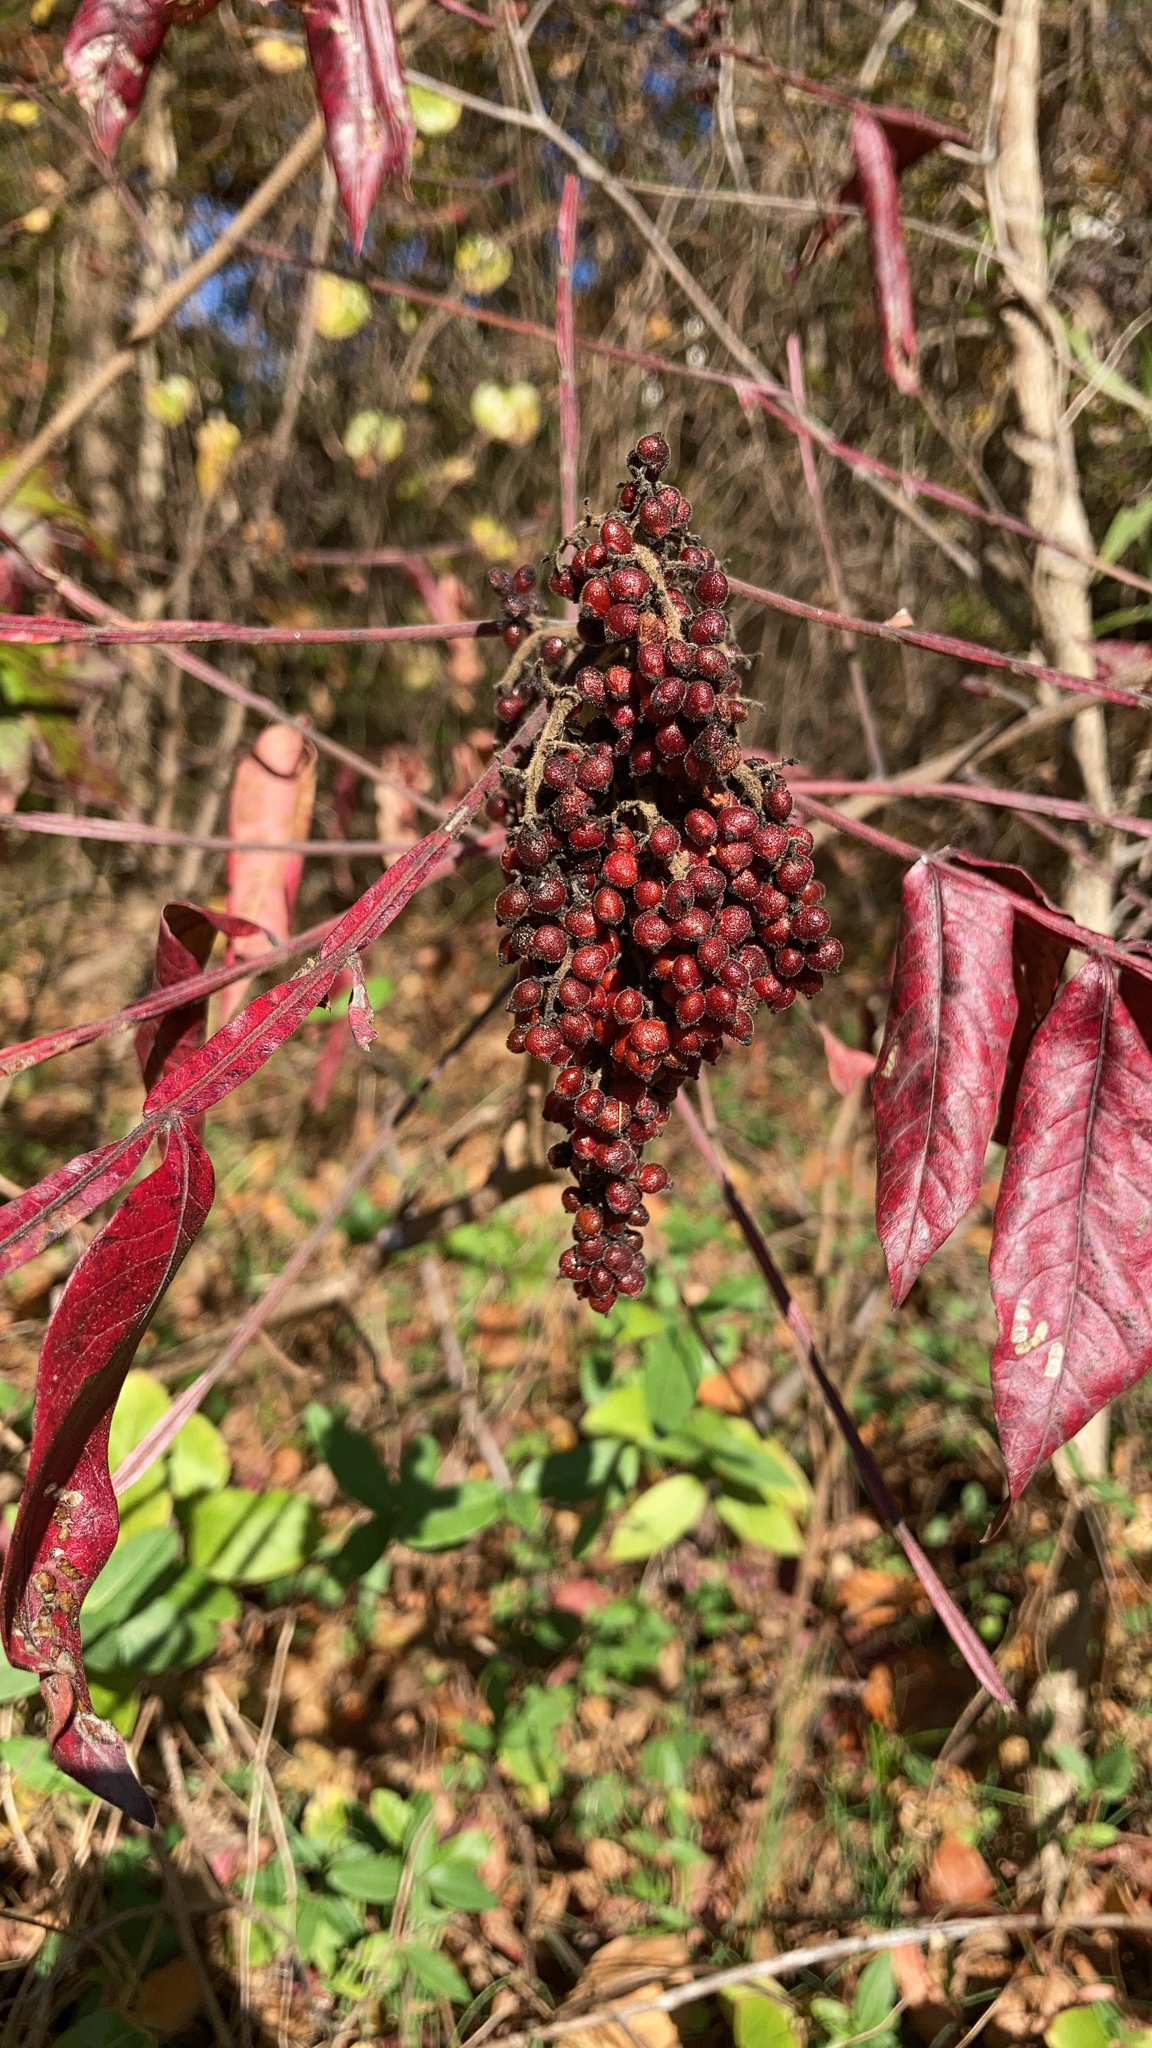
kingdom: Plantae
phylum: Tracheophyta
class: Magnoliopsida
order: Sapindales
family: Anacardiaceae
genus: Rhus
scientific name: Rhus copallina
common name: Shining sumac
